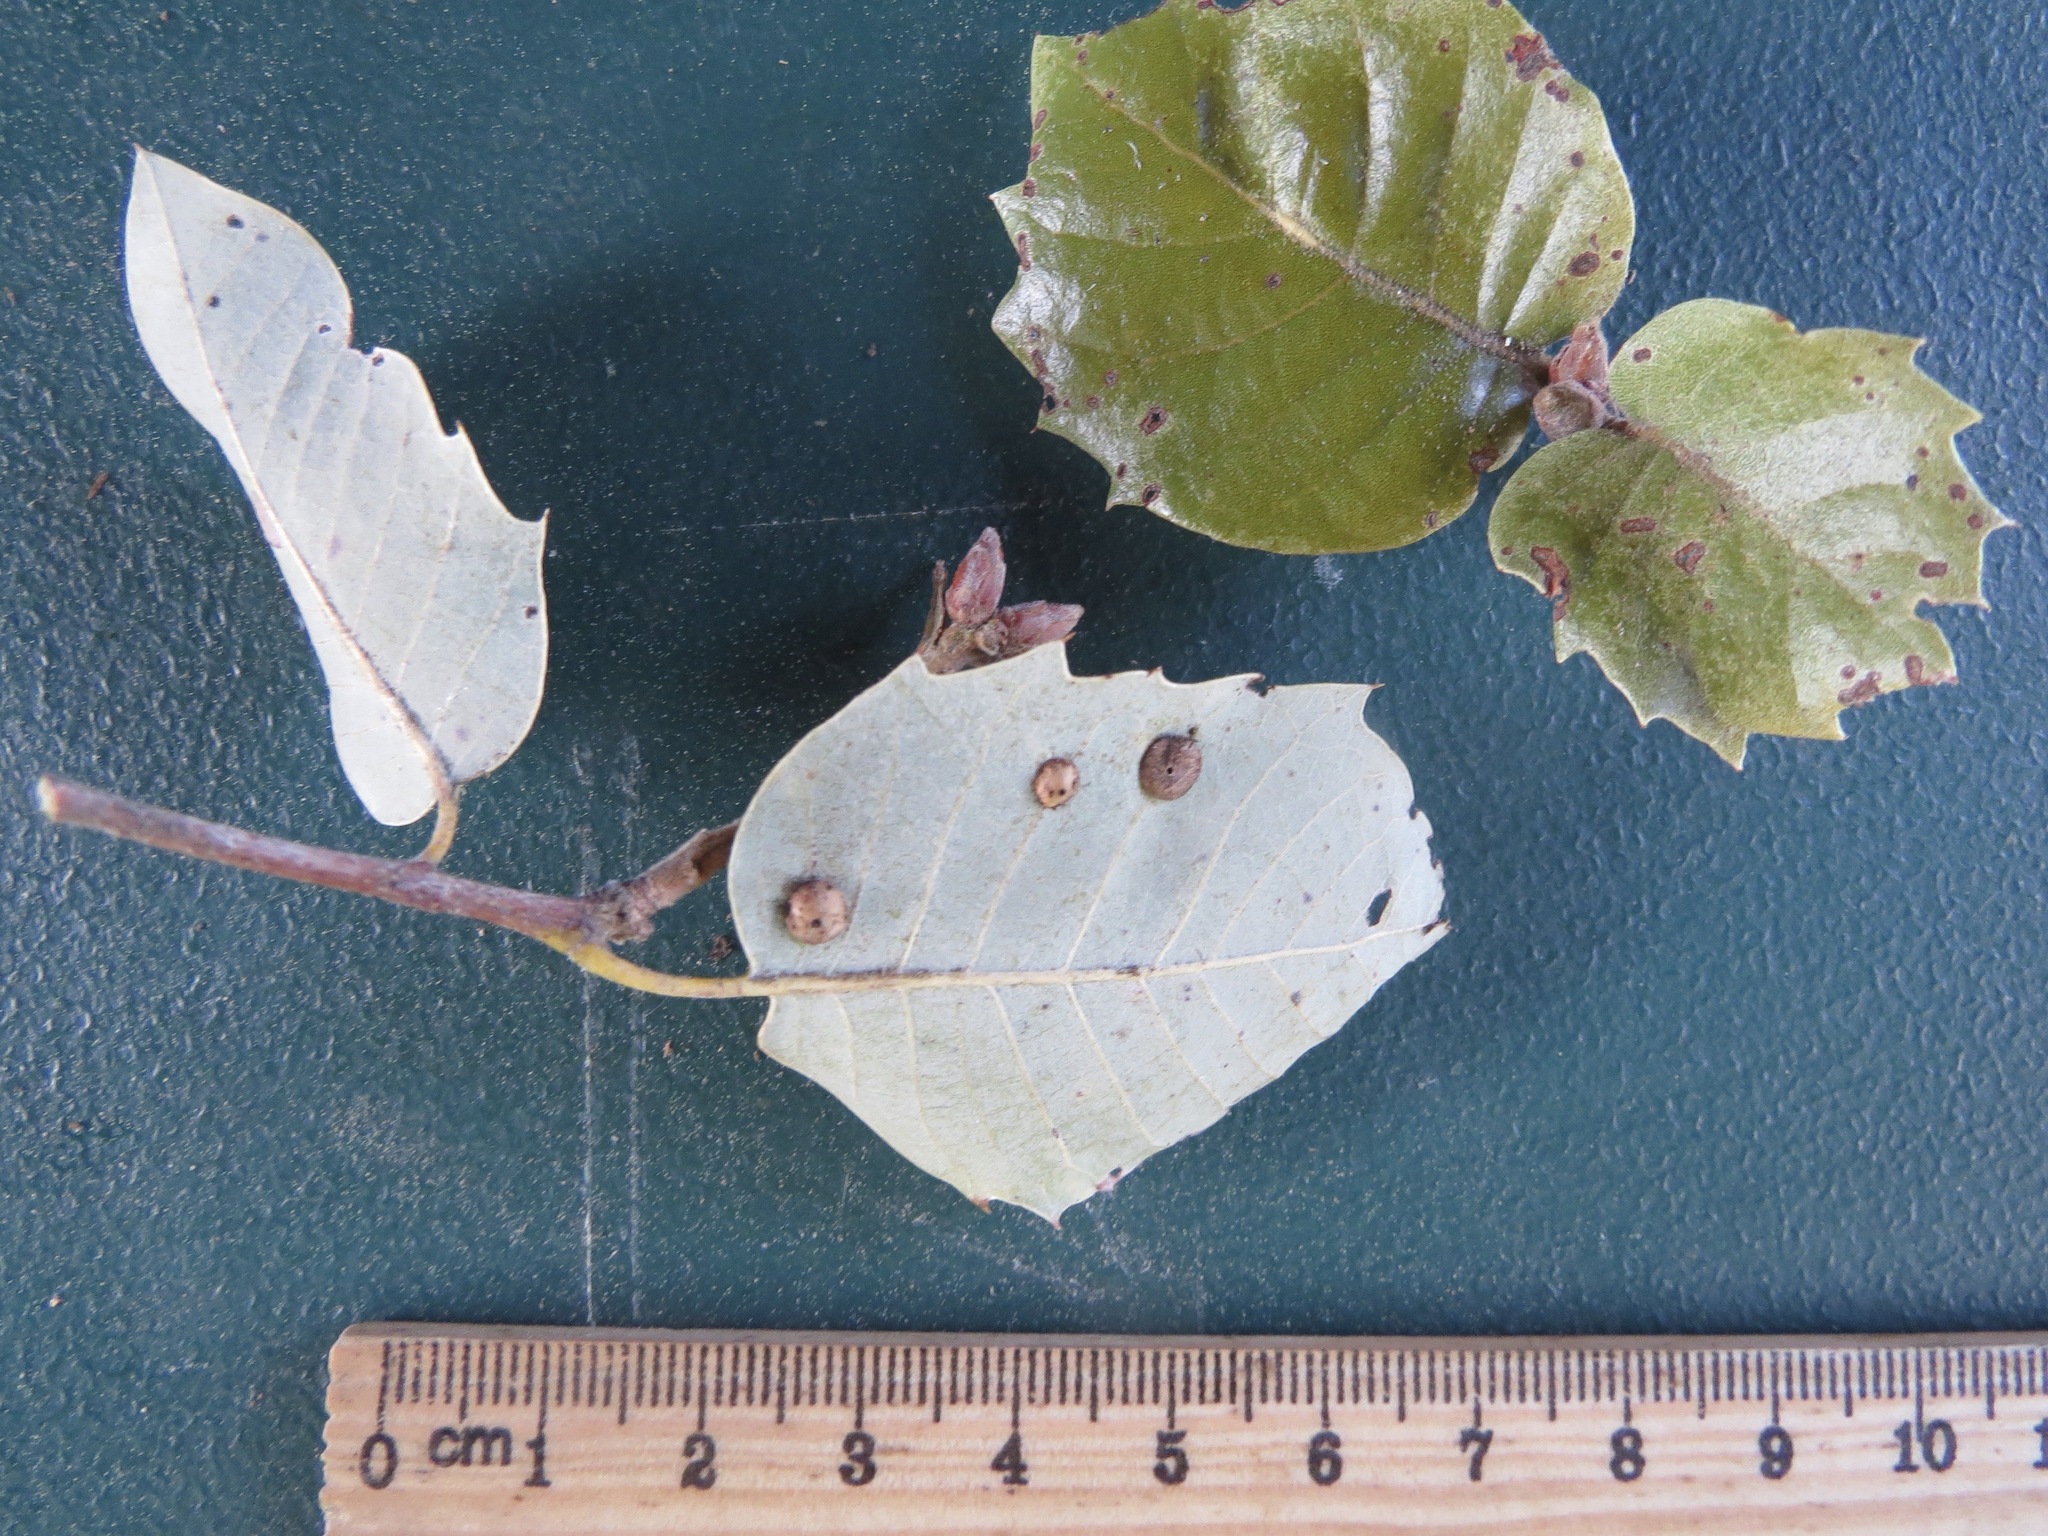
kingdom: Animalia
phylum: Arthropoda
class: Insecta
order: Hymenoptera
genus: Paracraspis
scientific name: Paracraspis
